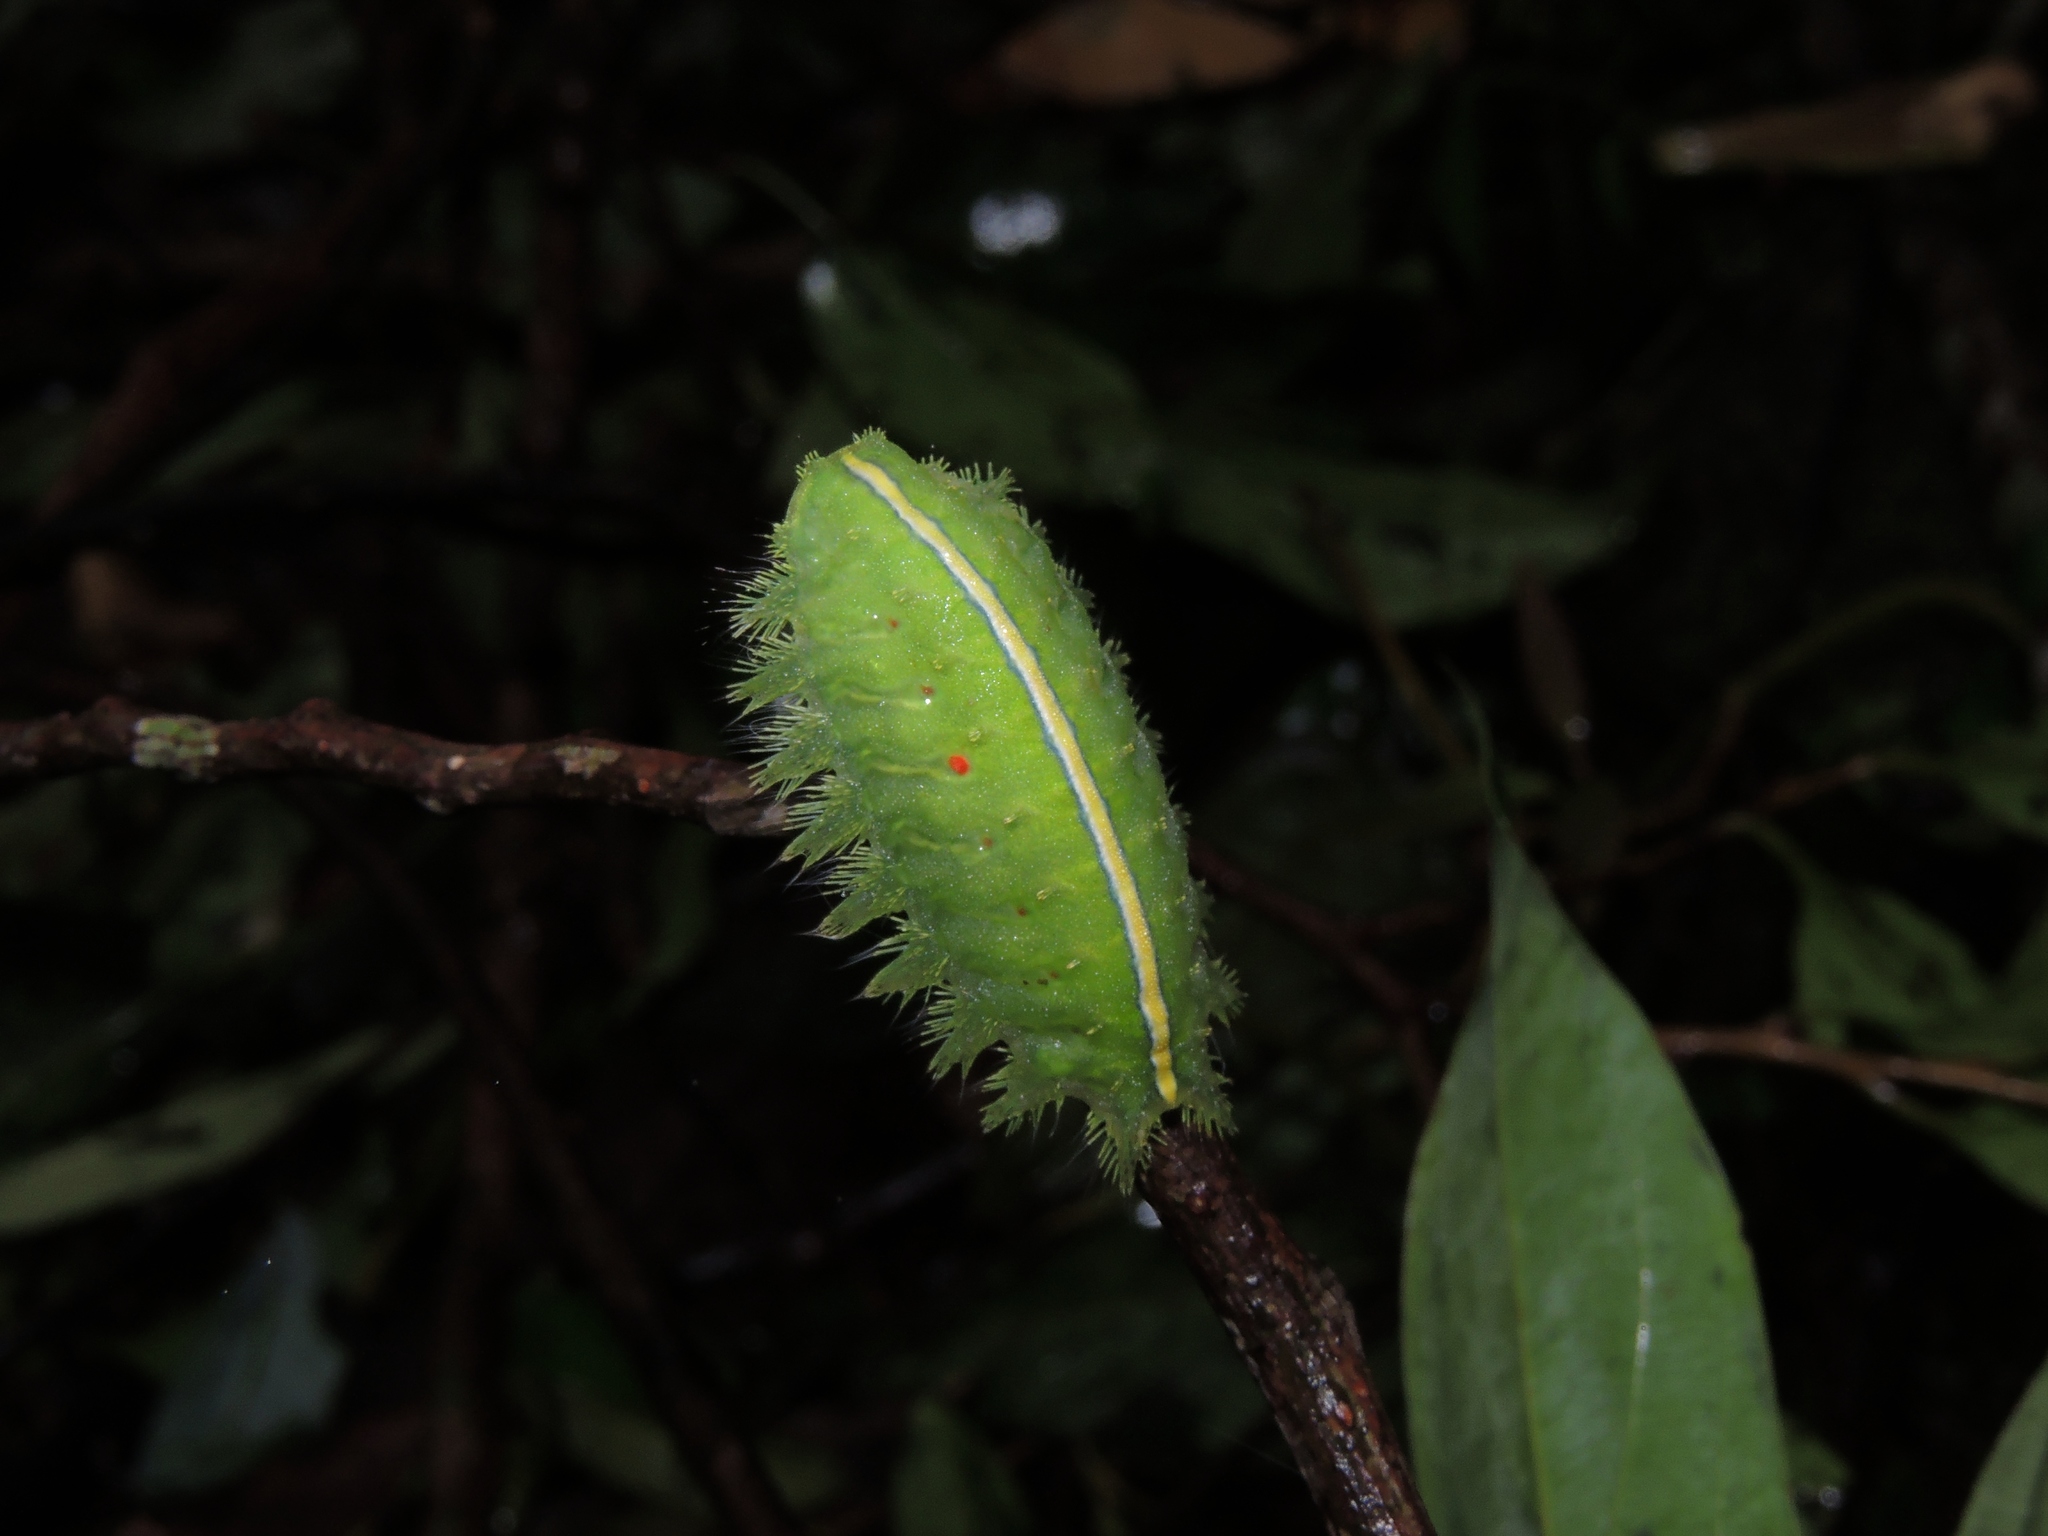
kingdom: Animalia
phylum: Arthropoda
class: Insecta
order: Lepidoptera
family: Limacodidae
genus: Thosea
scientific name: Thosea sinensis
